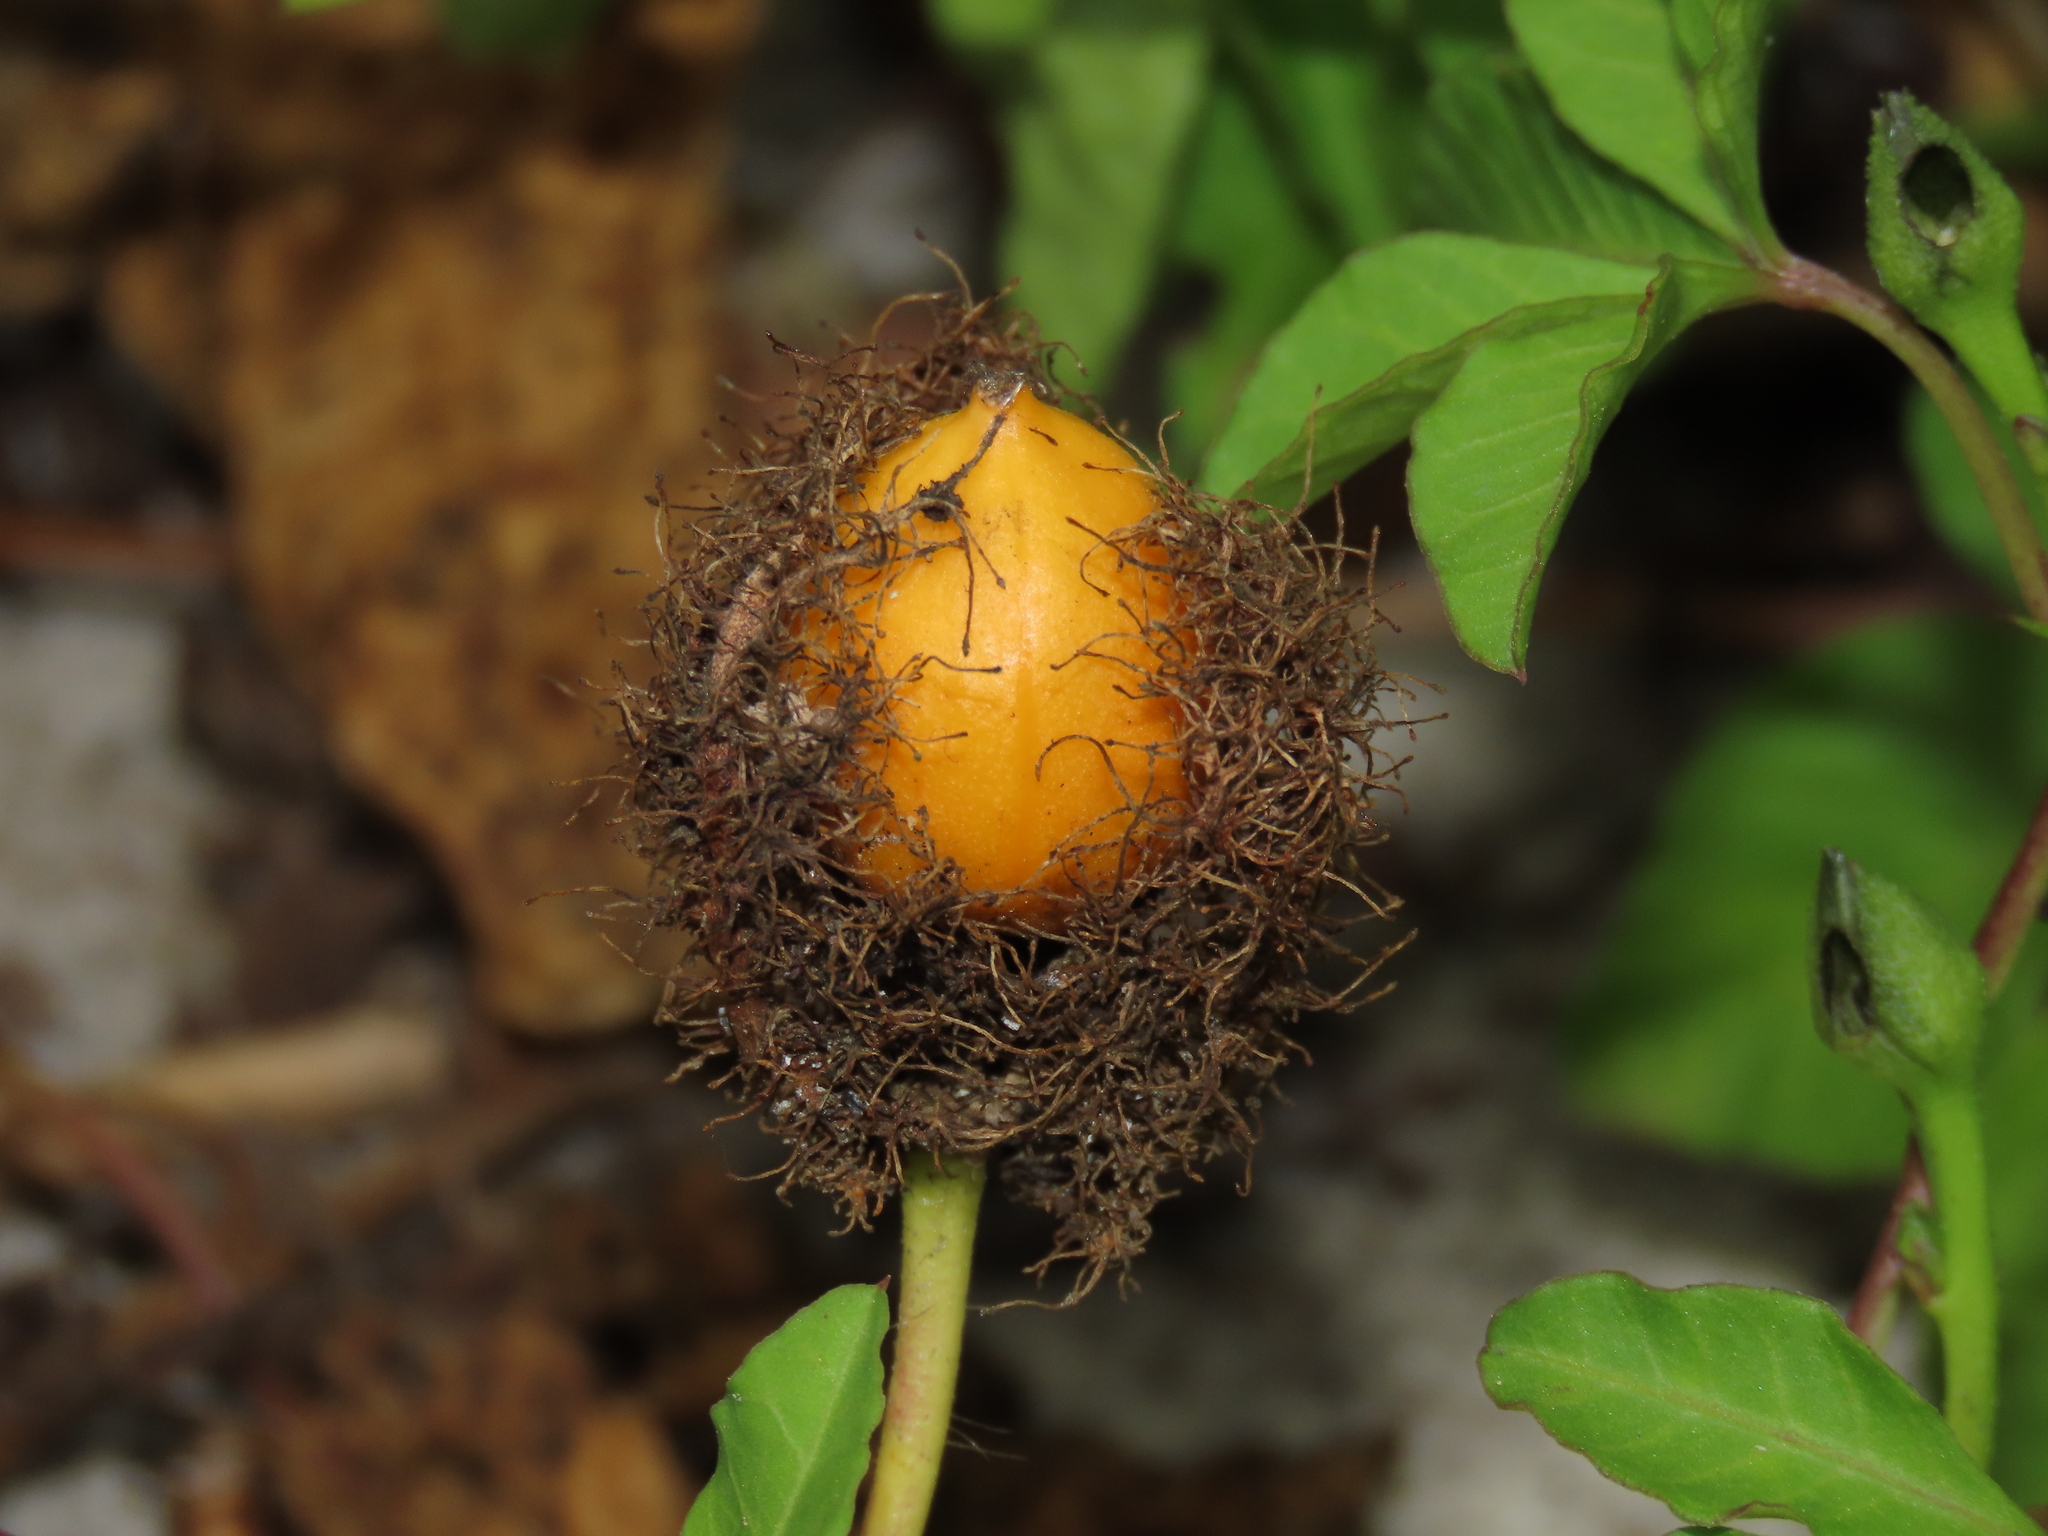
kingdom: Plantae
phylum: Tracheophyta
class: Magnoliopsida
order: Malpighiales
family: Passifloraceae
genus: Passiflora
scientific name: Passiflora vesicaria
